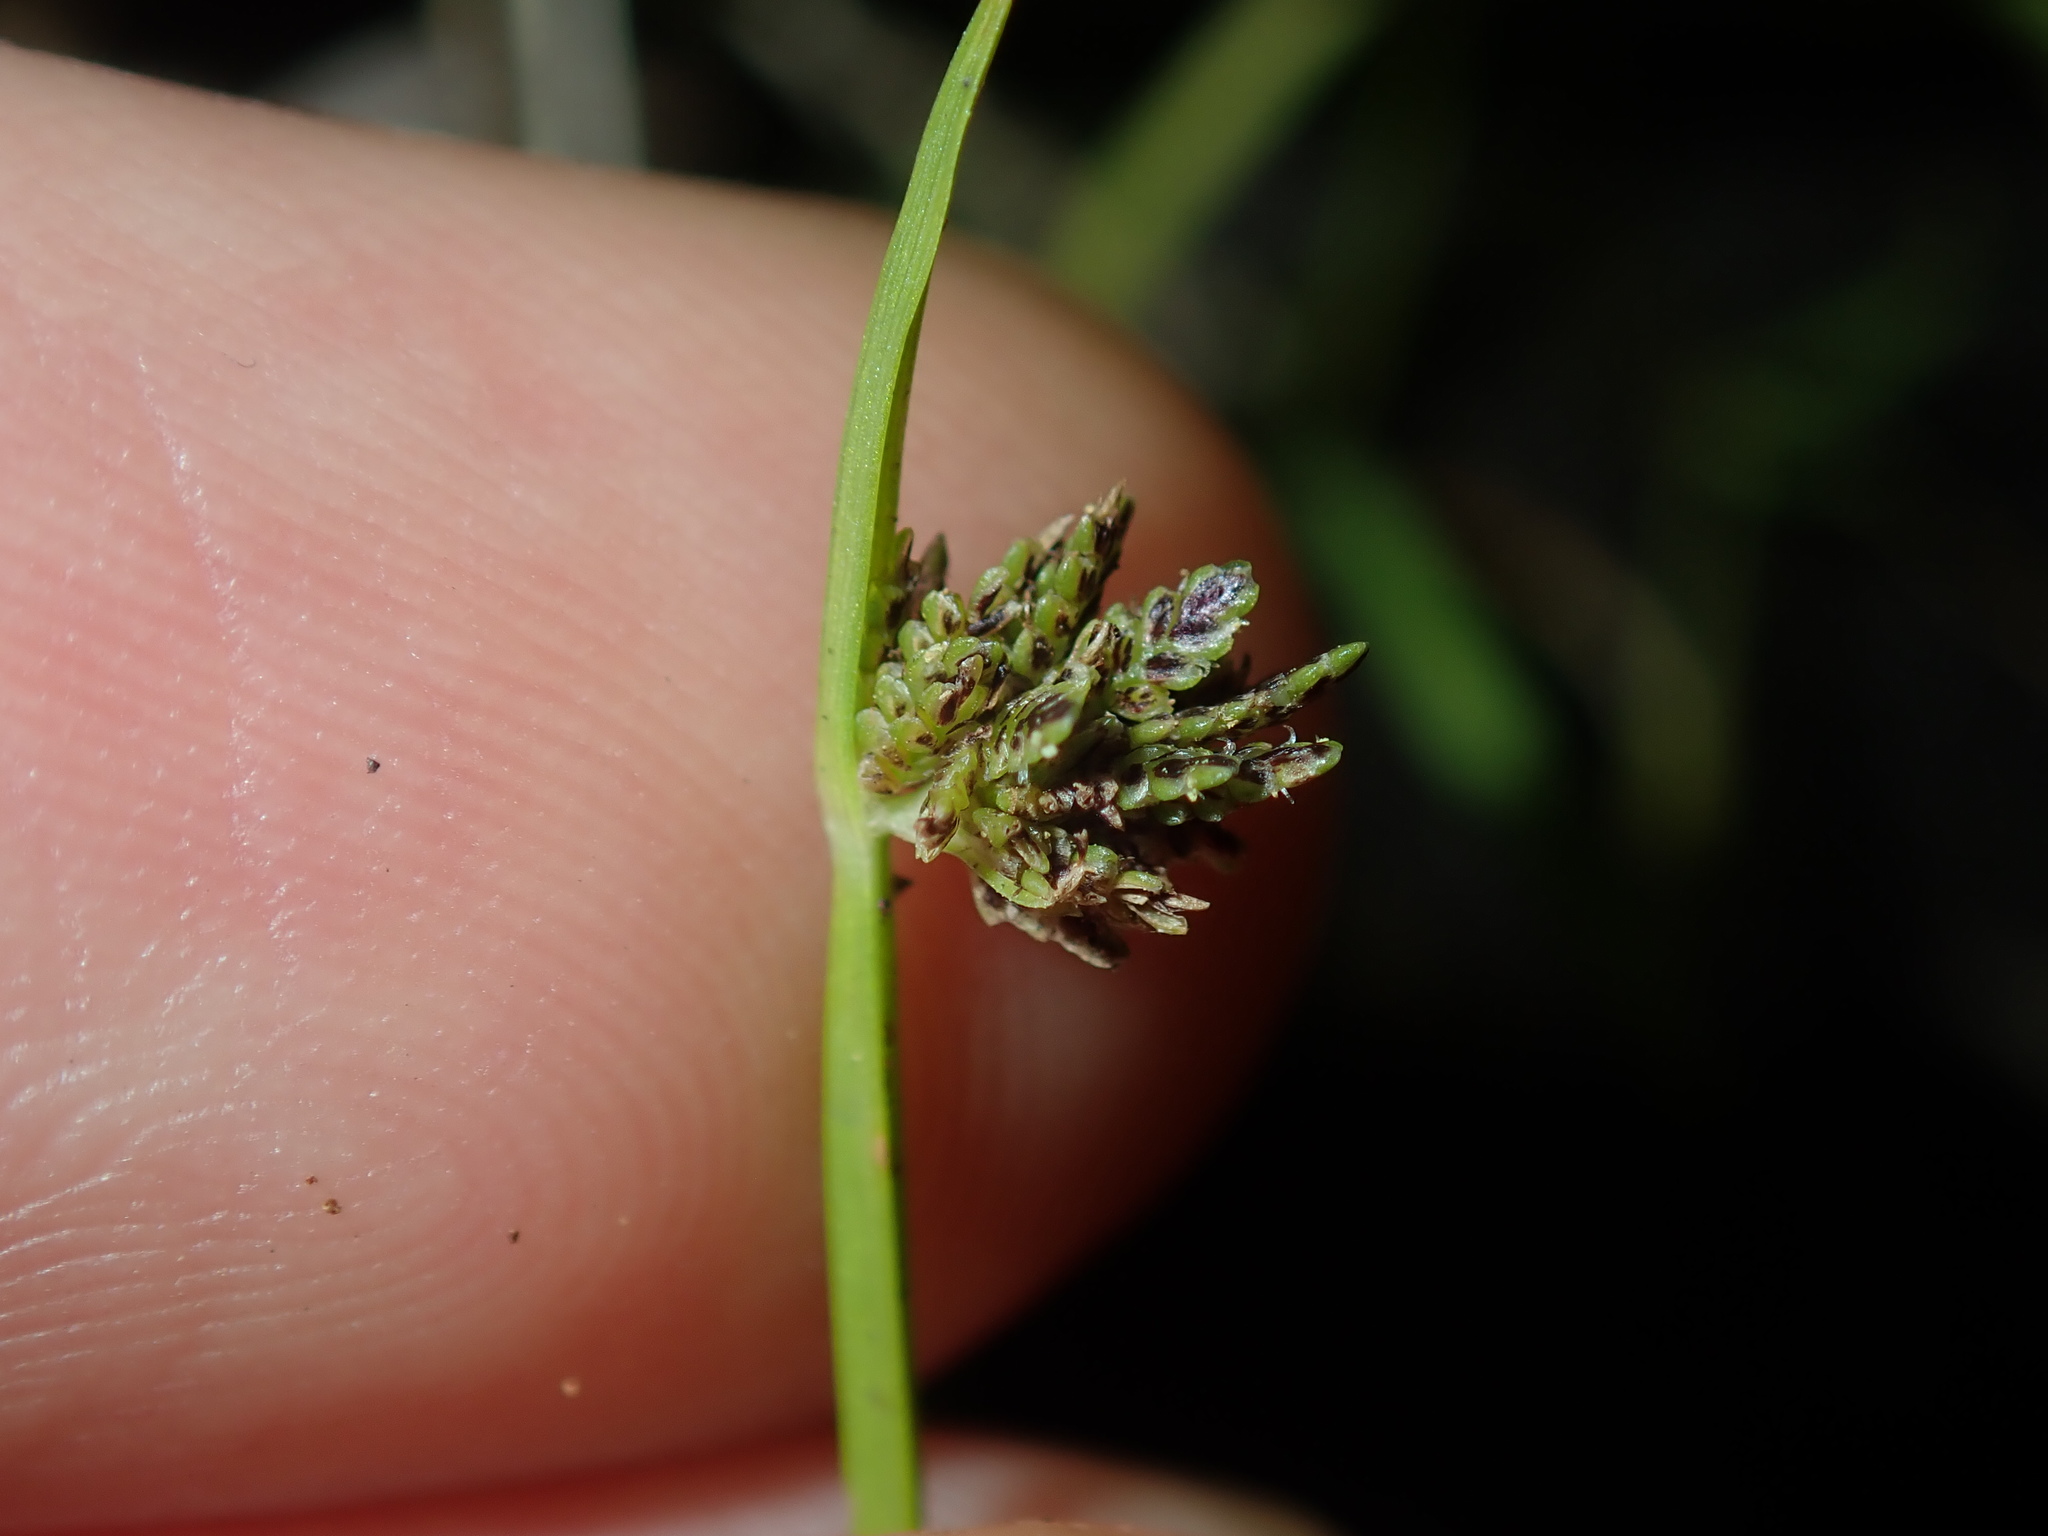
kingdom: Plantae
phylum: Tracheophyta
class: Liliopsida
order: Poales
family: Cyperaceae
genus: Cyperus
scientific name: Cyperus difformis
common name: Variable flatsedge
